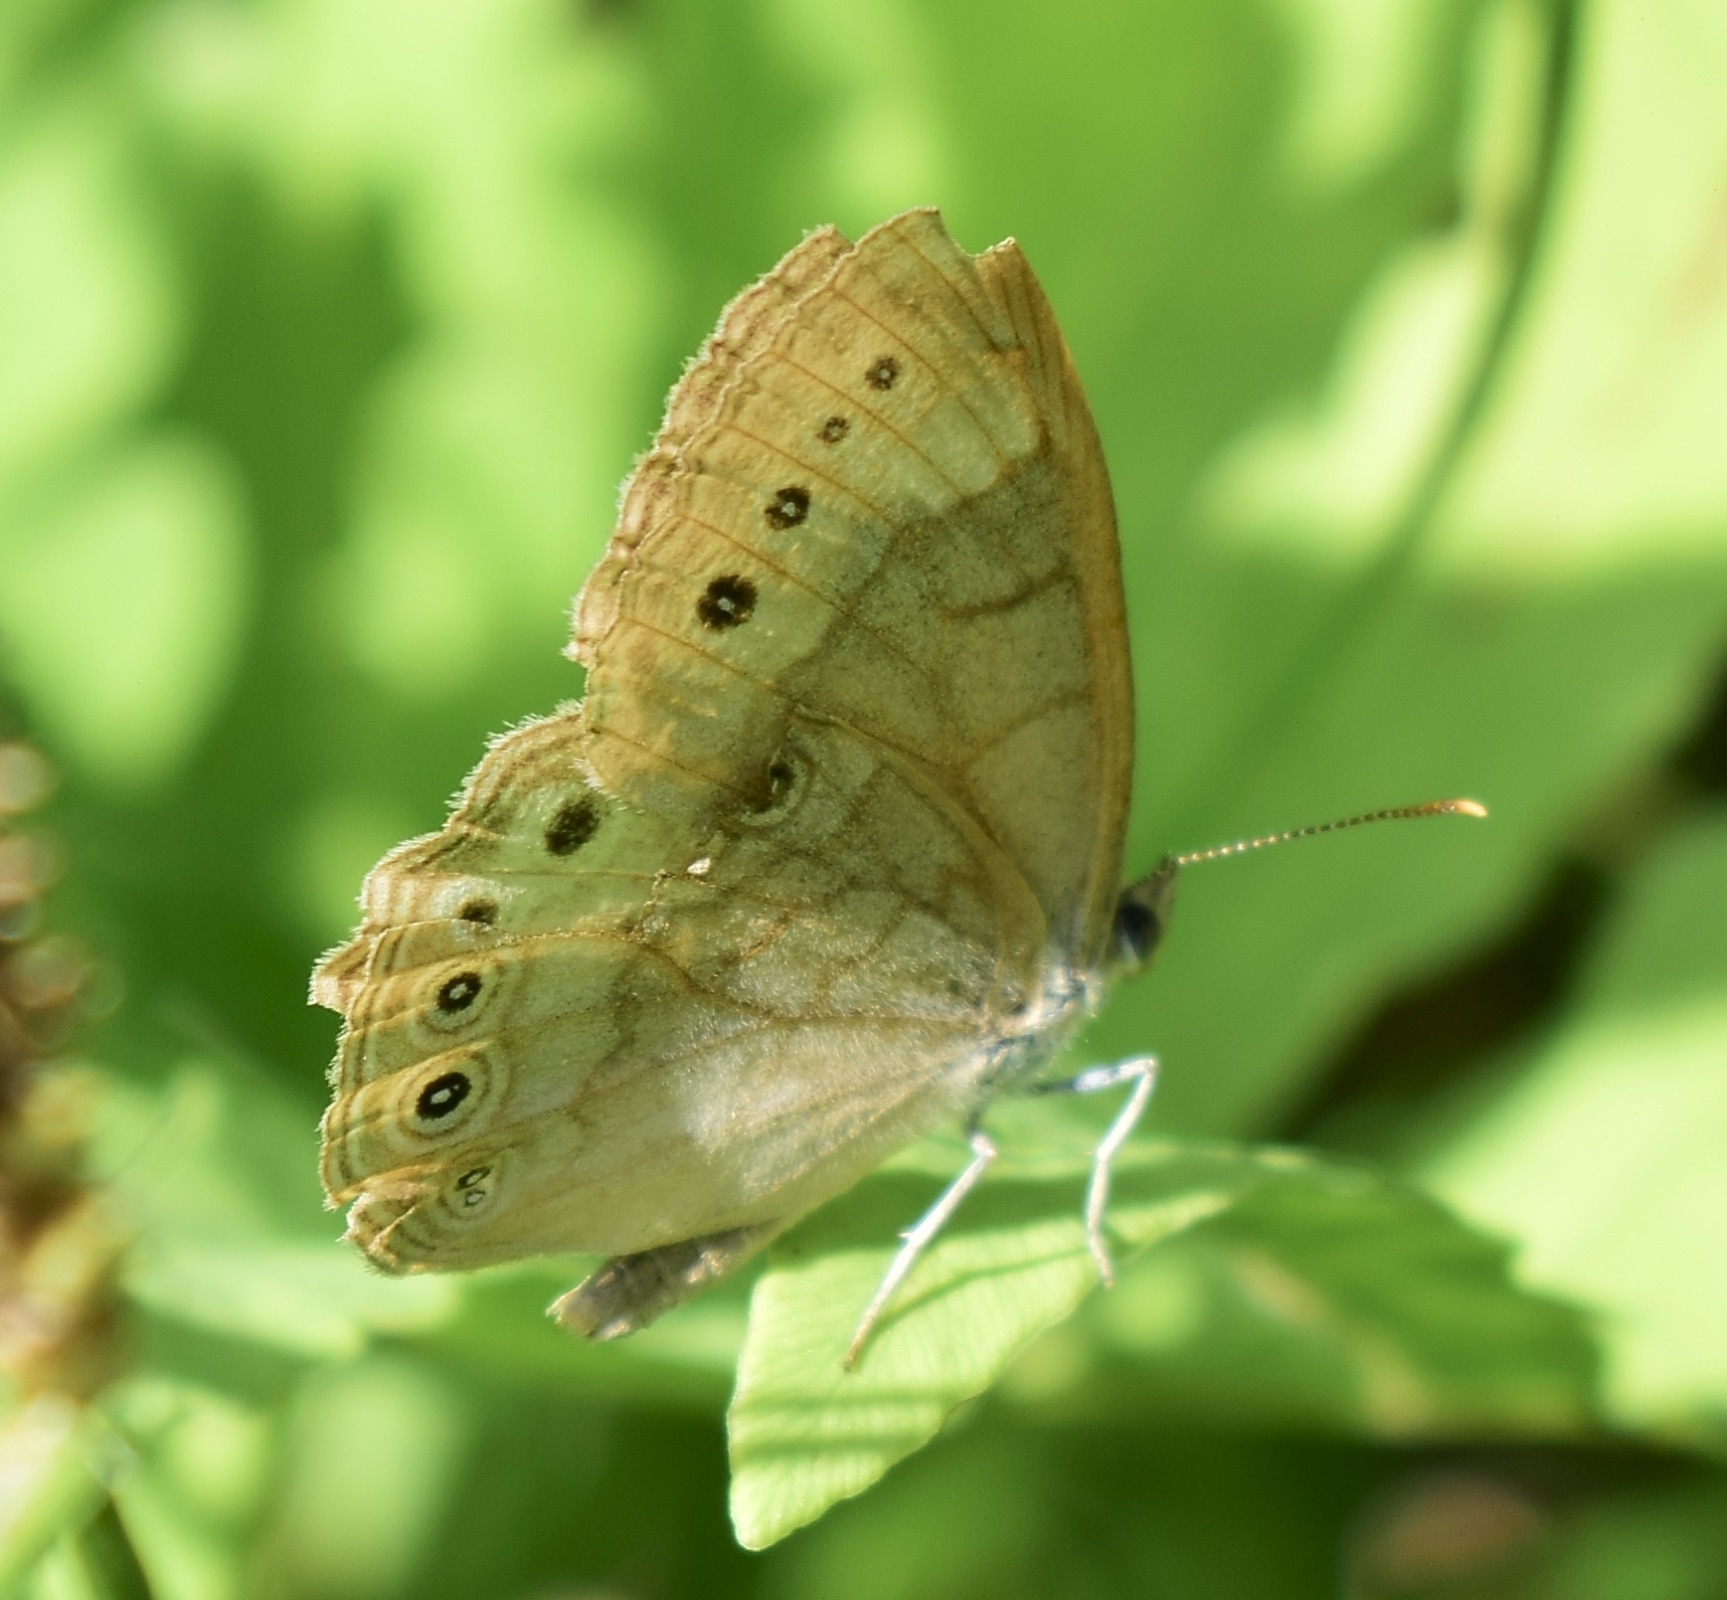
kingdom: Animalia
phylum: Arthropoda
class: Insecta
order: Lepidoptera
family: Nymphalidae
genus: Lethe
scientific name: Lethe eurydice
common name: Eyed brown
